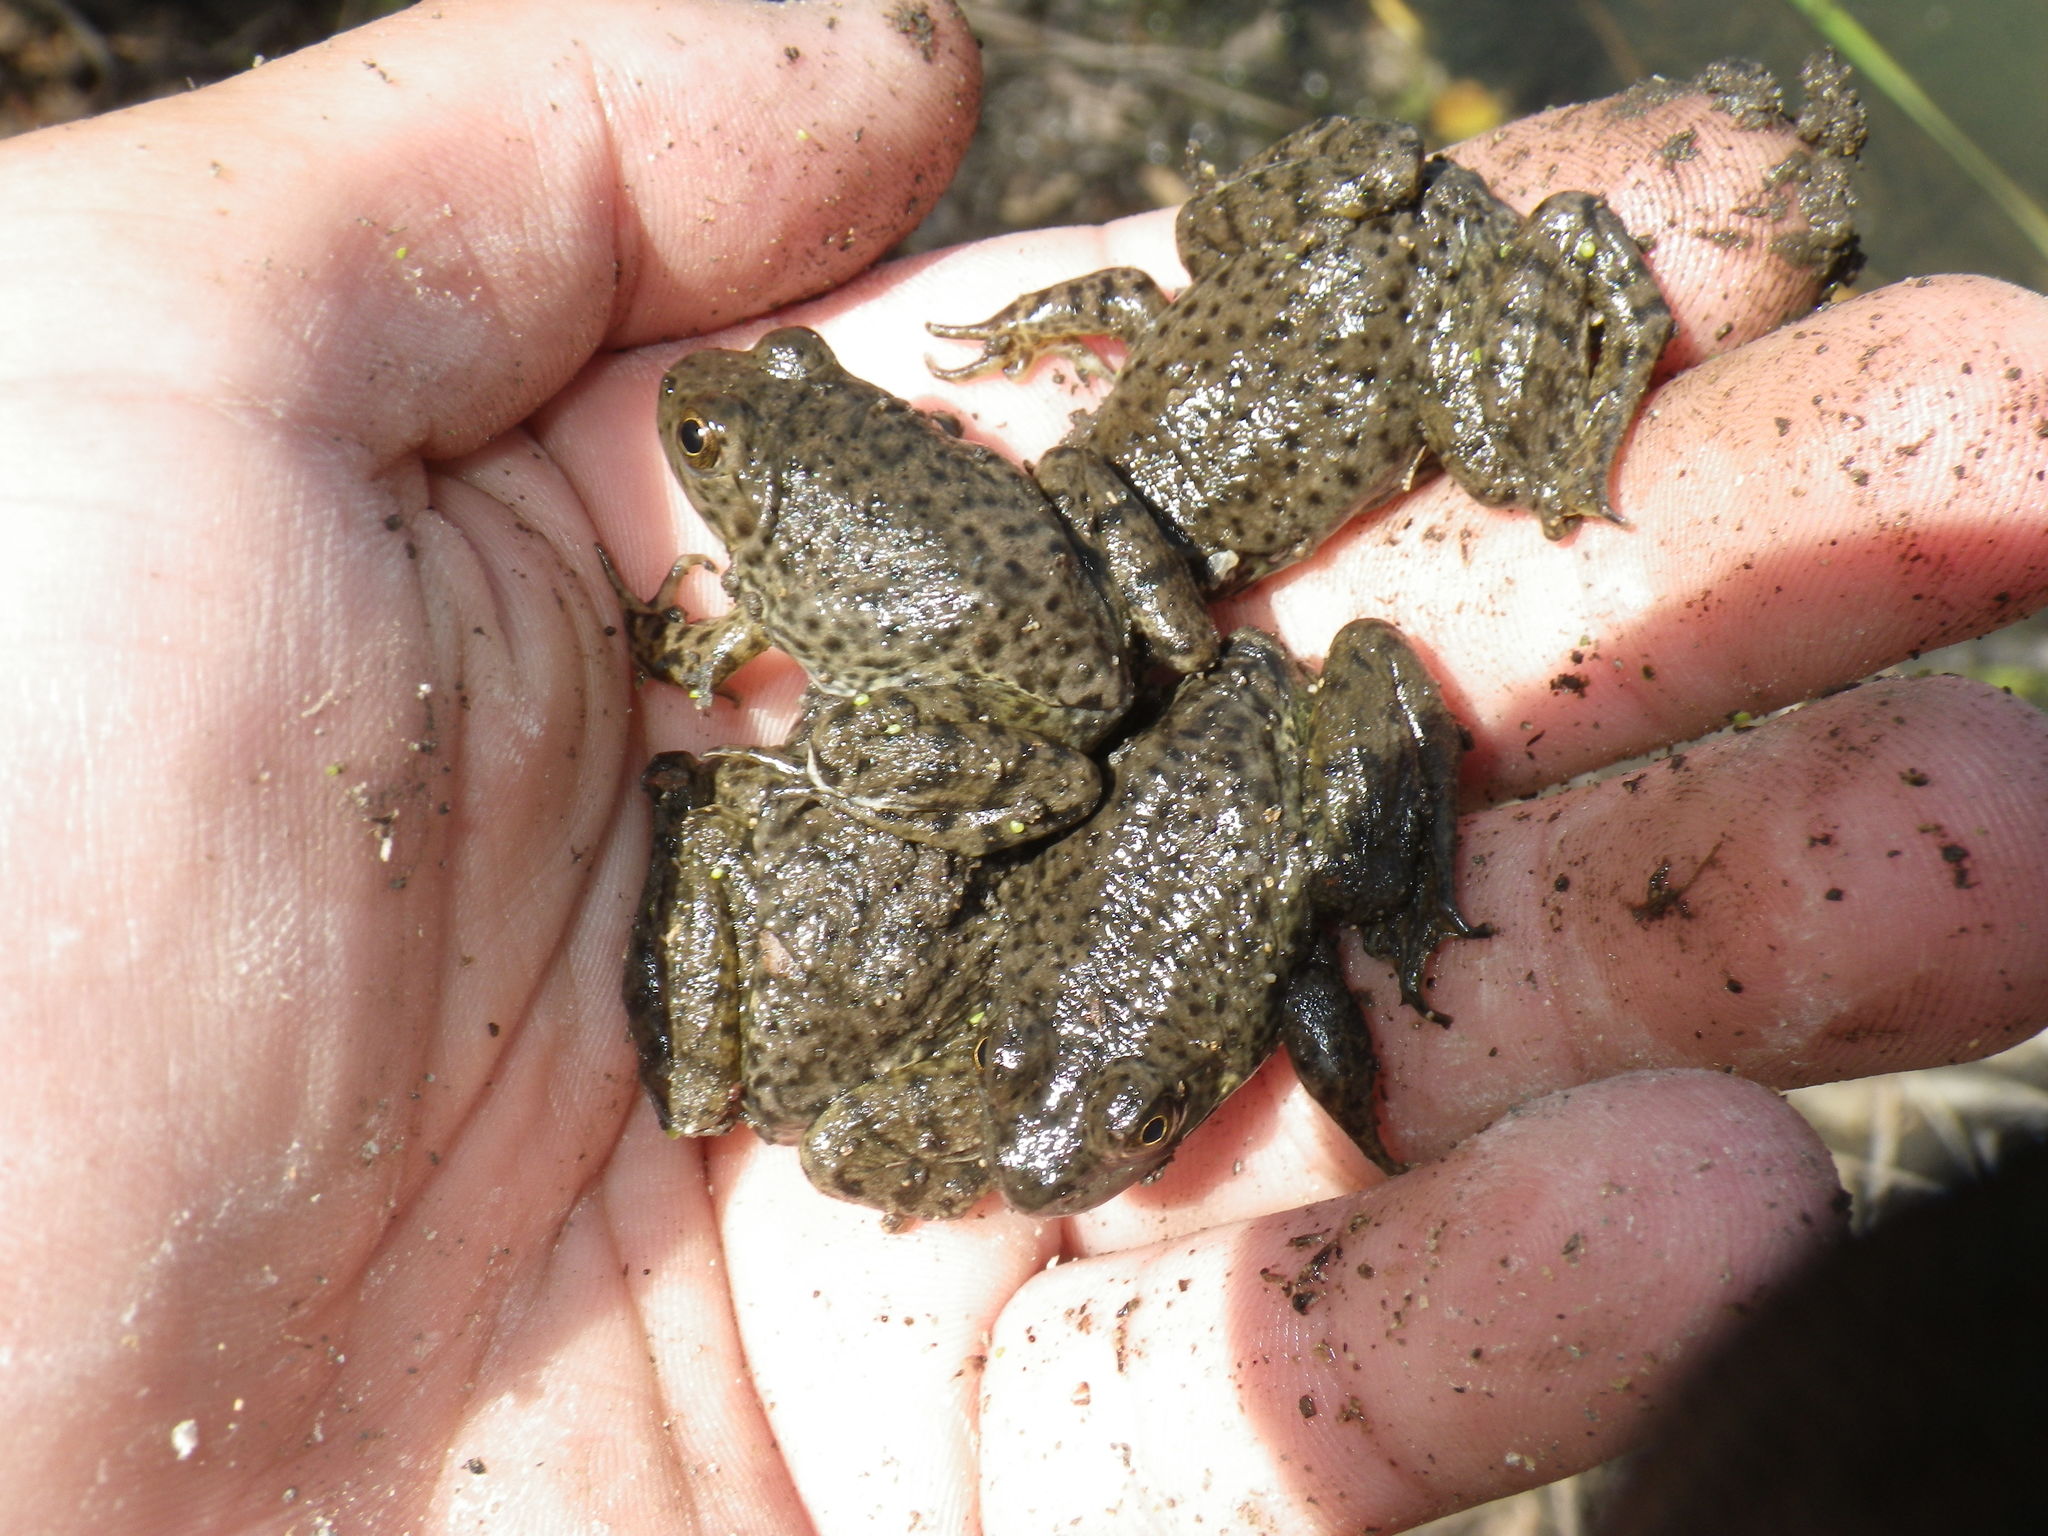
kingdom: Animalia
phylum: Chordata
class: Amphibia
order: Anura
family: Ranidae
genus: Lithobates
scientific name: Lithobates catesbeianus
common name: American bullfrog
